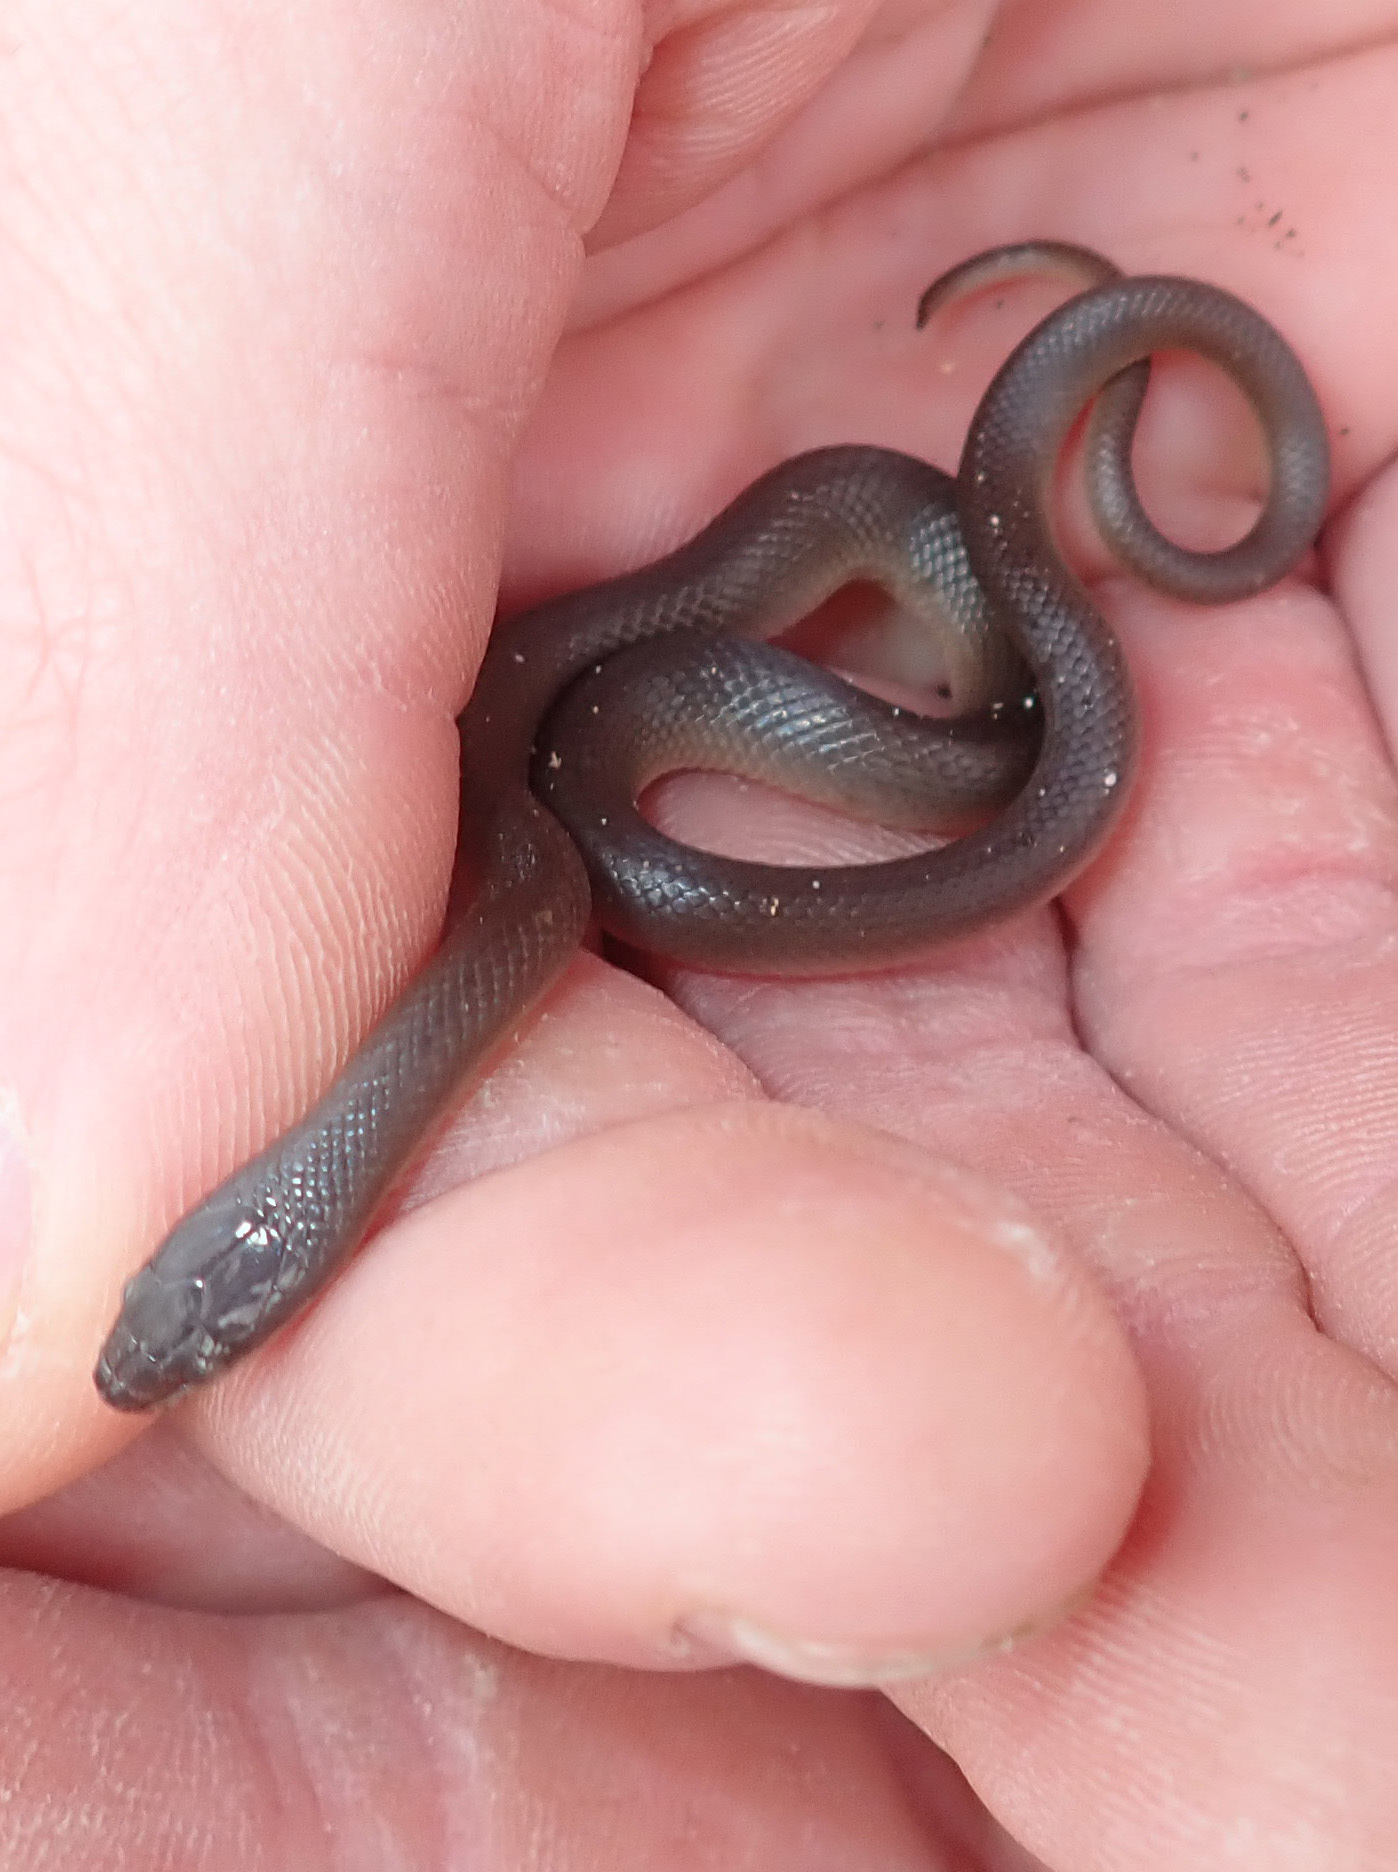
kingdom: Animalia
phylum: Chordata
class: Squamata
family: Lamprophiidae
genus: Lycodonomorphus
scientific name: Lycodonomorphus rufulus
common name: Brown water snake
